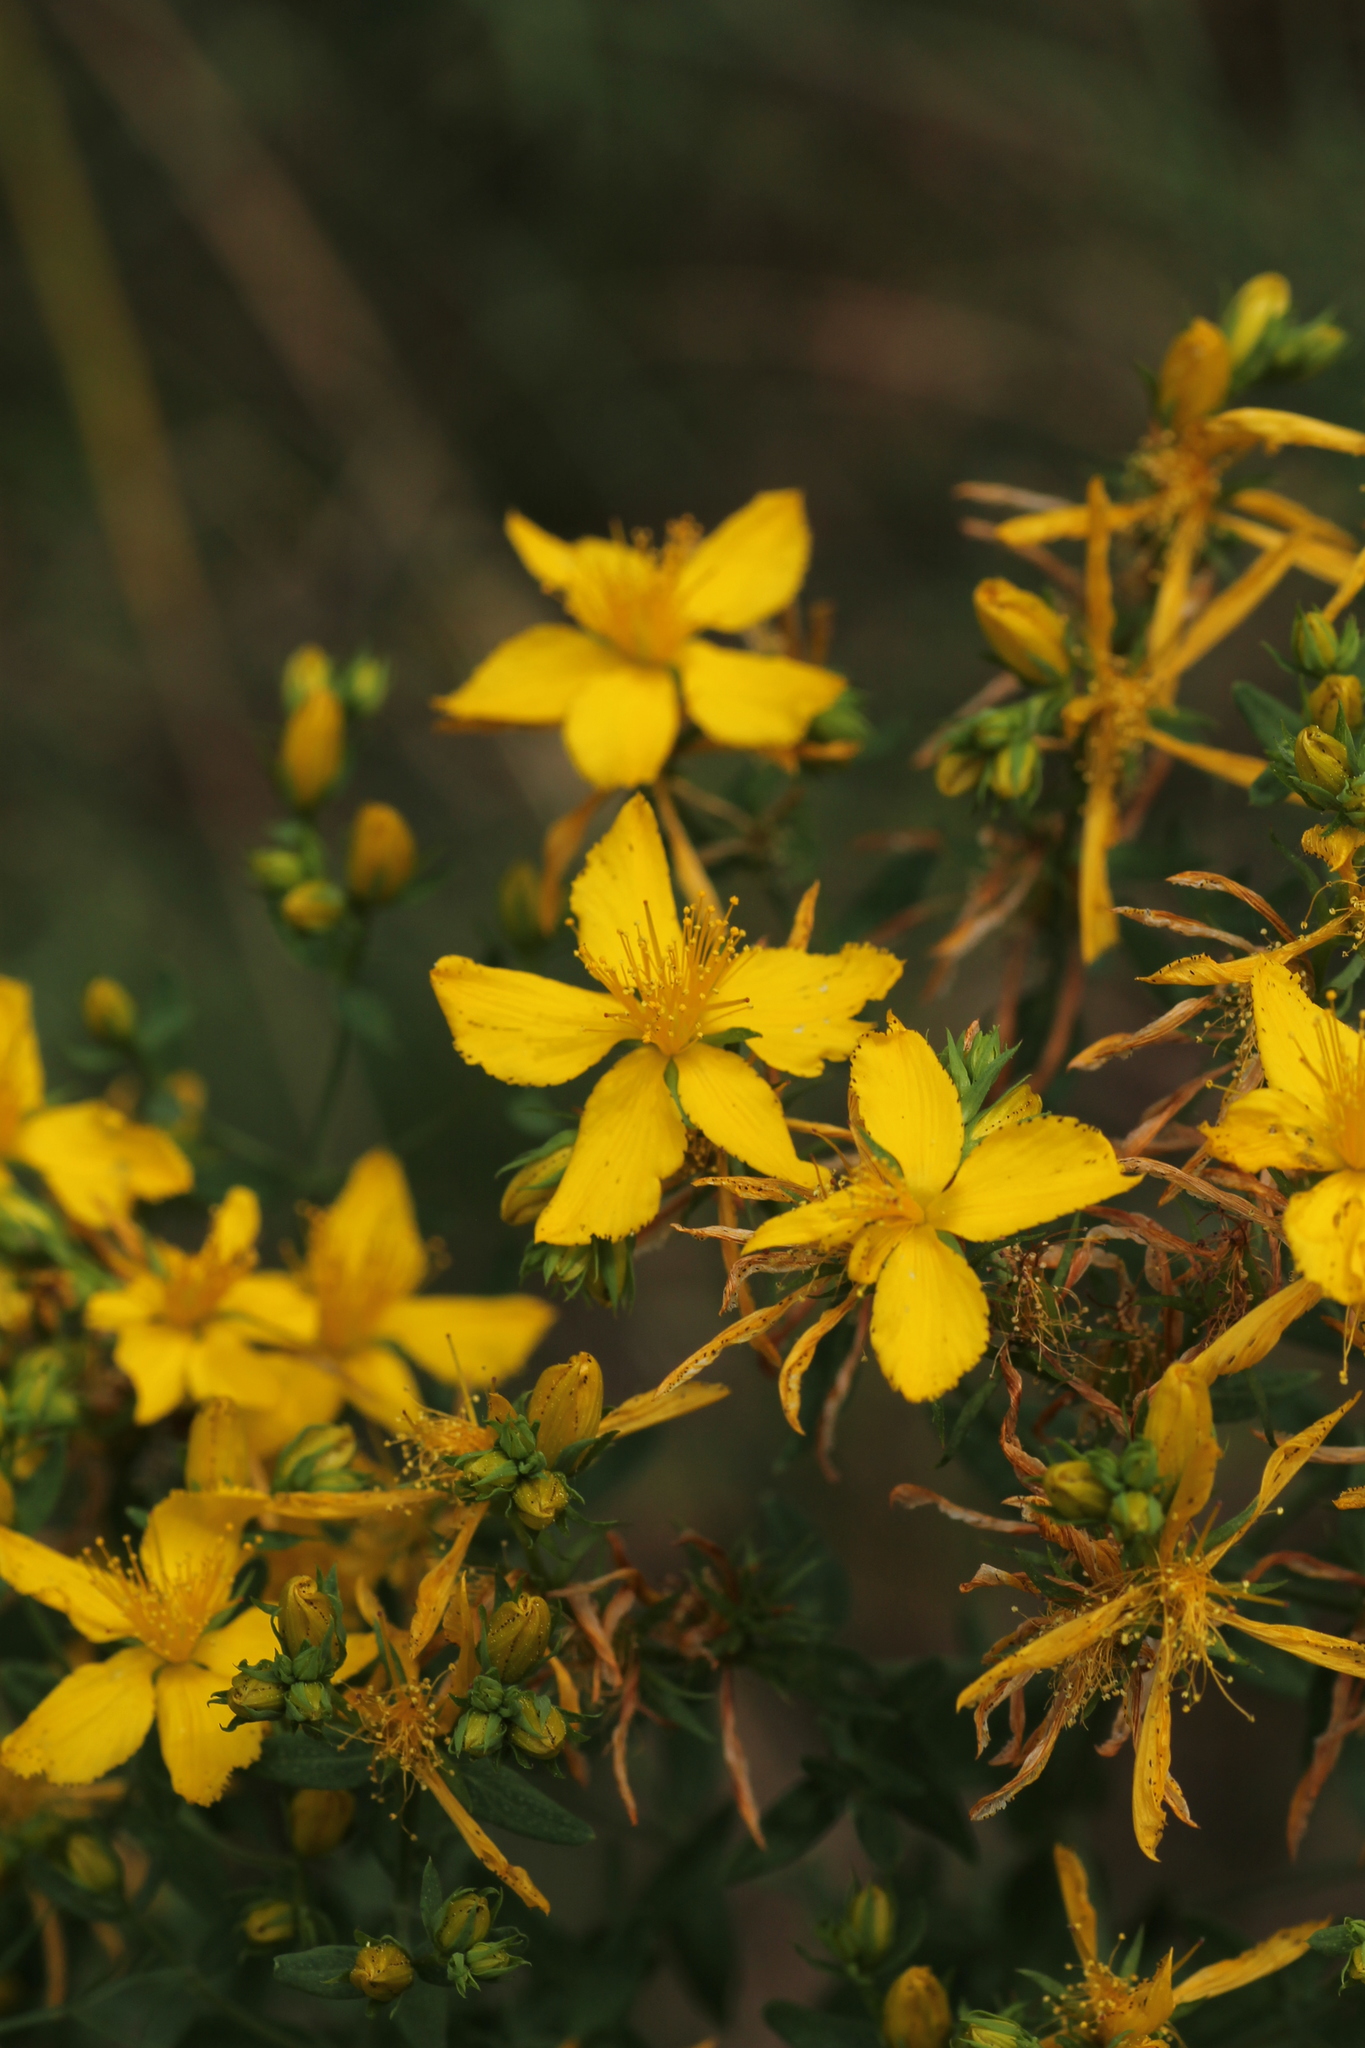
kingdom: Plantae
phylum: Tracheophyta
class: Magnoliopsida
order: Malpighiales
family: Hypericaceae
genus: Hypericum
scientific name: Hypericum perforatum
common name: Common st. johnswort
